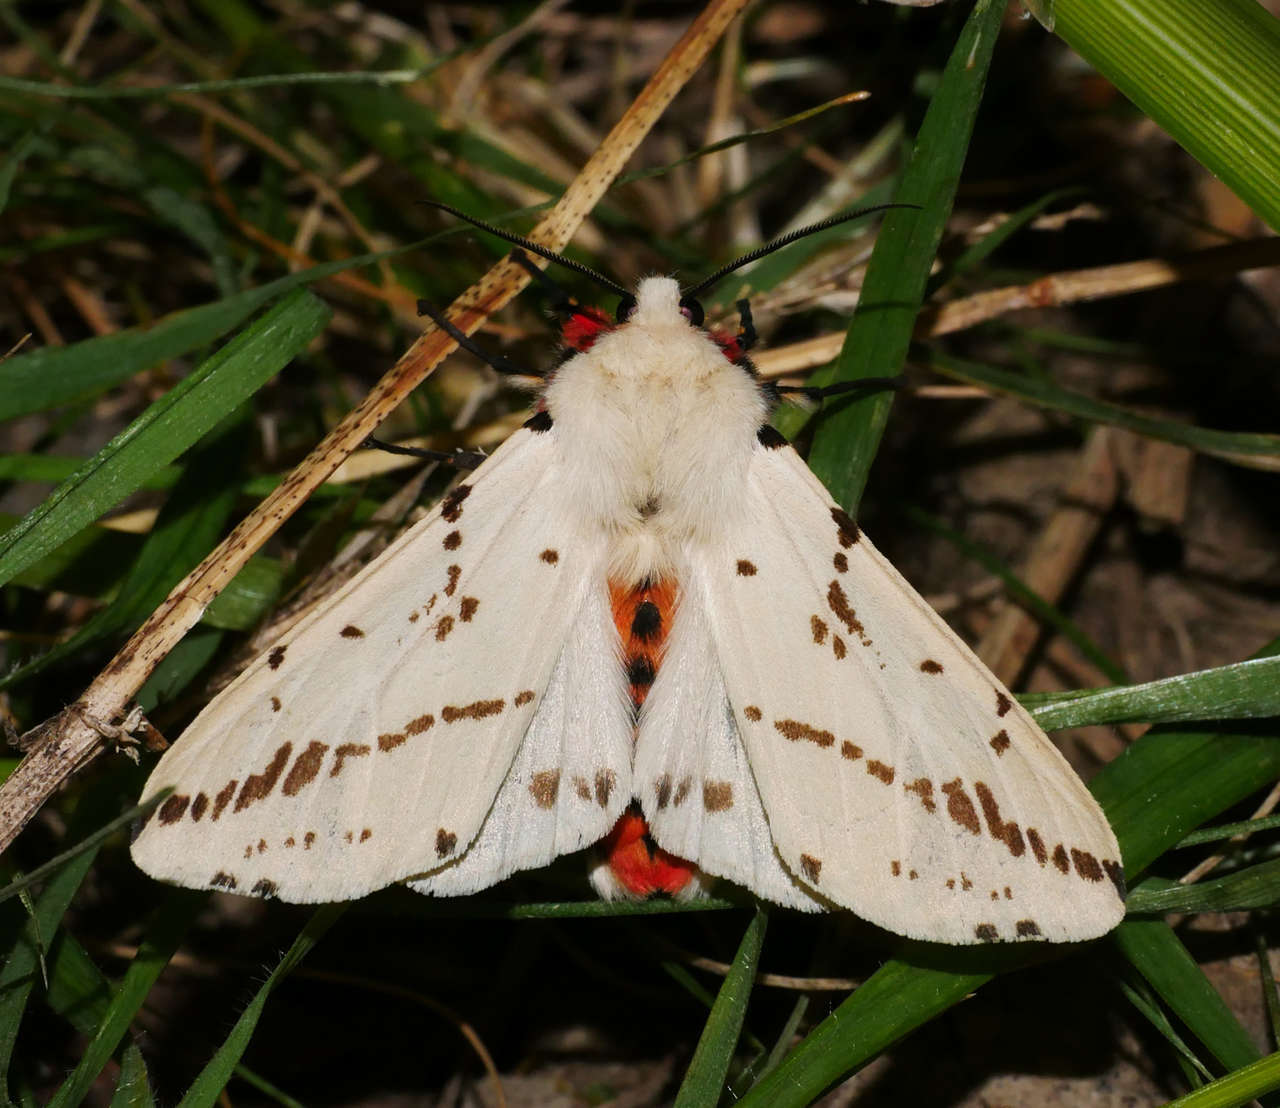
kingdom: Animalia
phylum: Arthropoda
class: Insecta
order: Lepidoptera
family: Erebidae
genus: Ardices
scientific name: Ardices canescens
